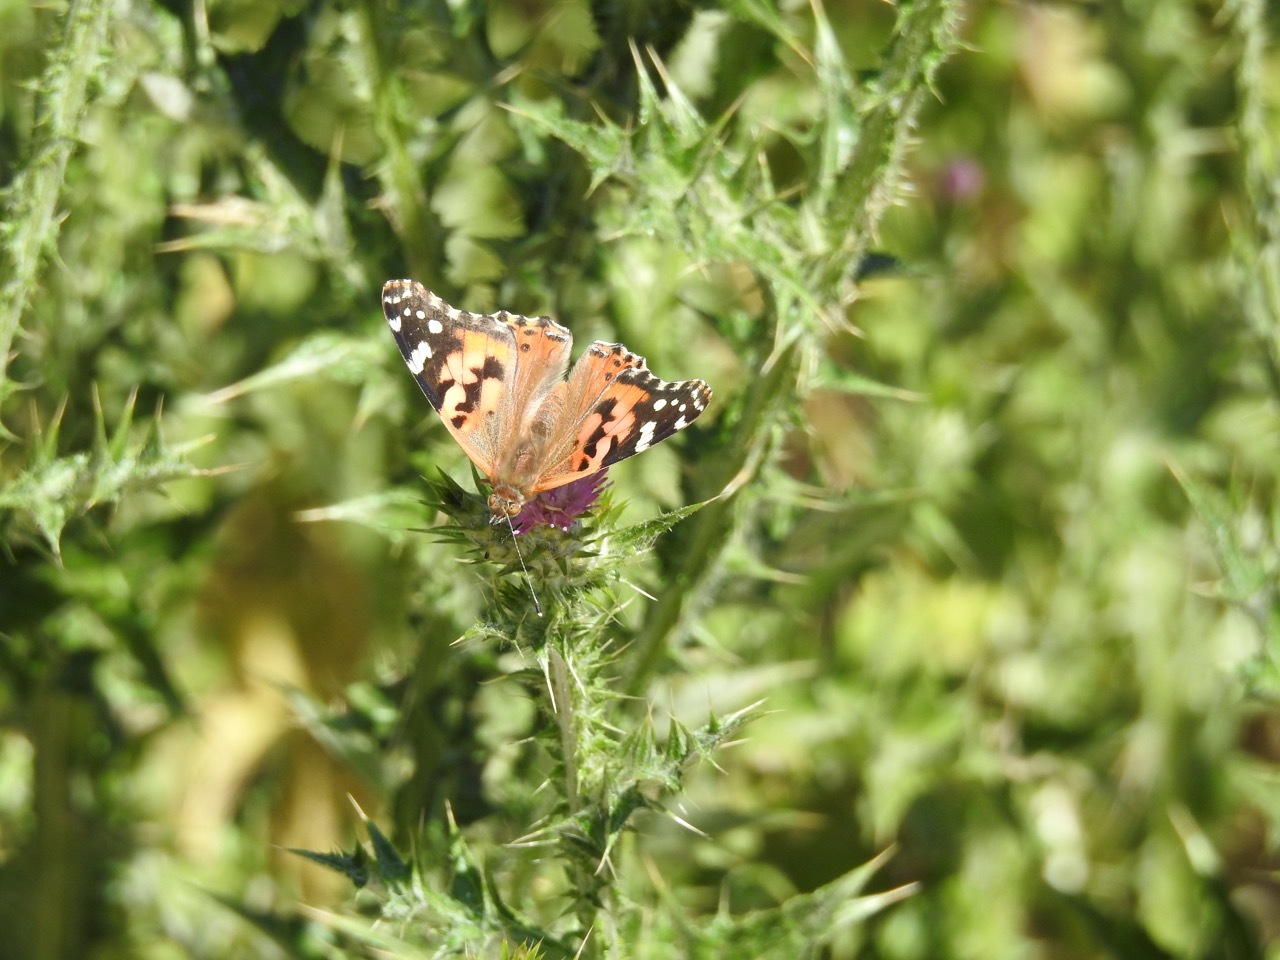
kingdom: Animalia
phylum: Arthropoda
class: Insecta
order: Lepidoptera
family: Nymphalidae
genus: Vanessa
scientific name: Vanessa cardui
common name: Painted lady
